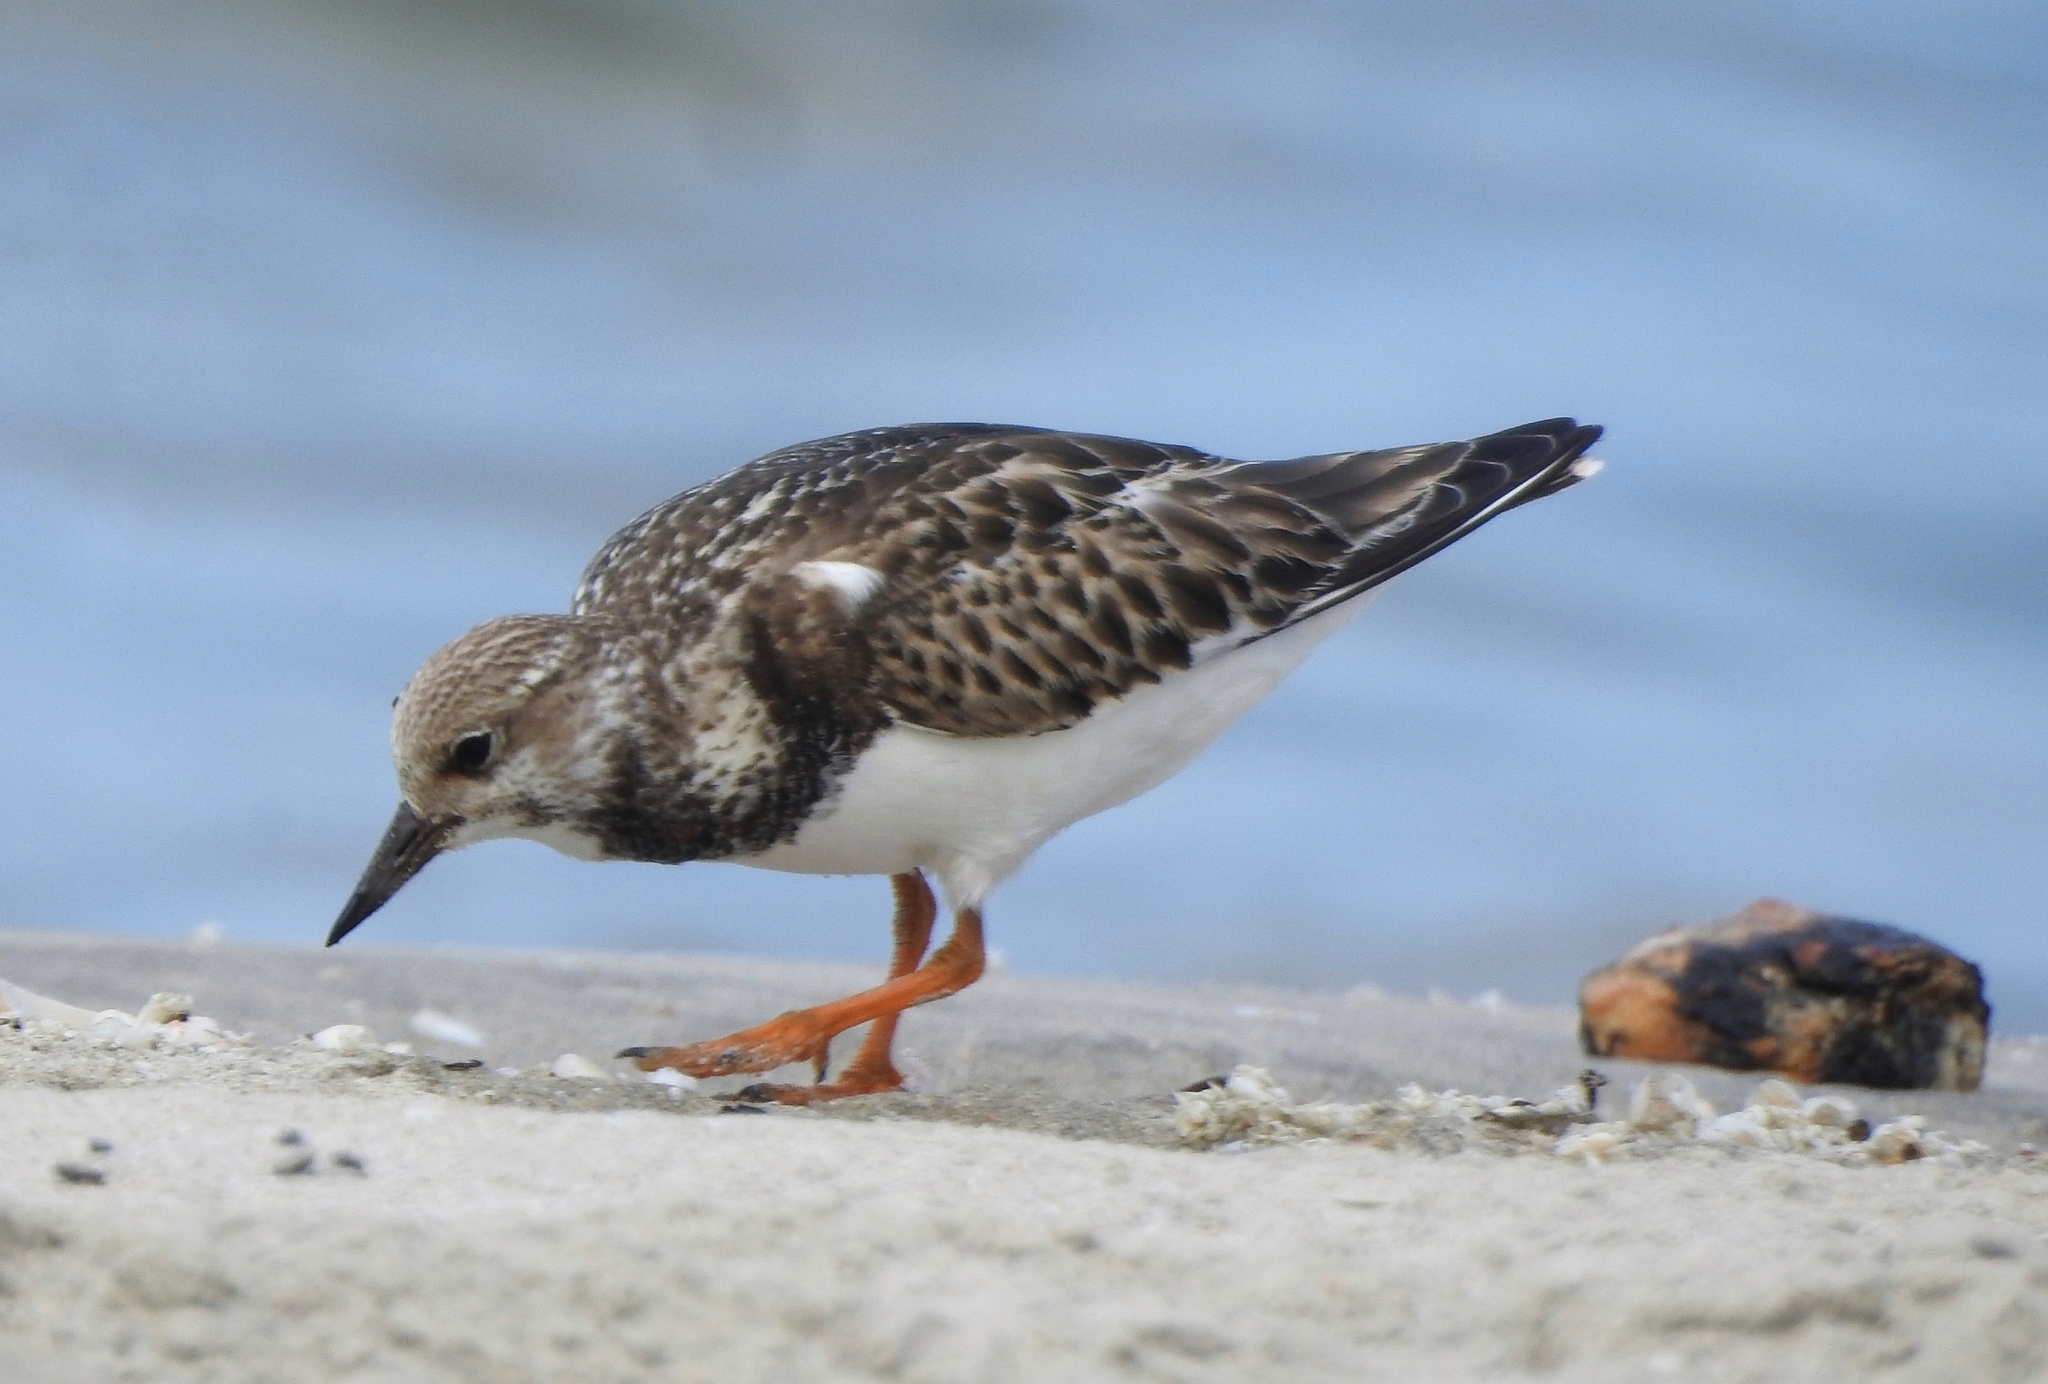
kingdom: Animalia
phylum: Chordata
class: Aves
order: Charadriiformes
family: Scolopacidae
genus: Arenaria
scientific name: Arenaria interpres
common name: Ruddy turnstone
